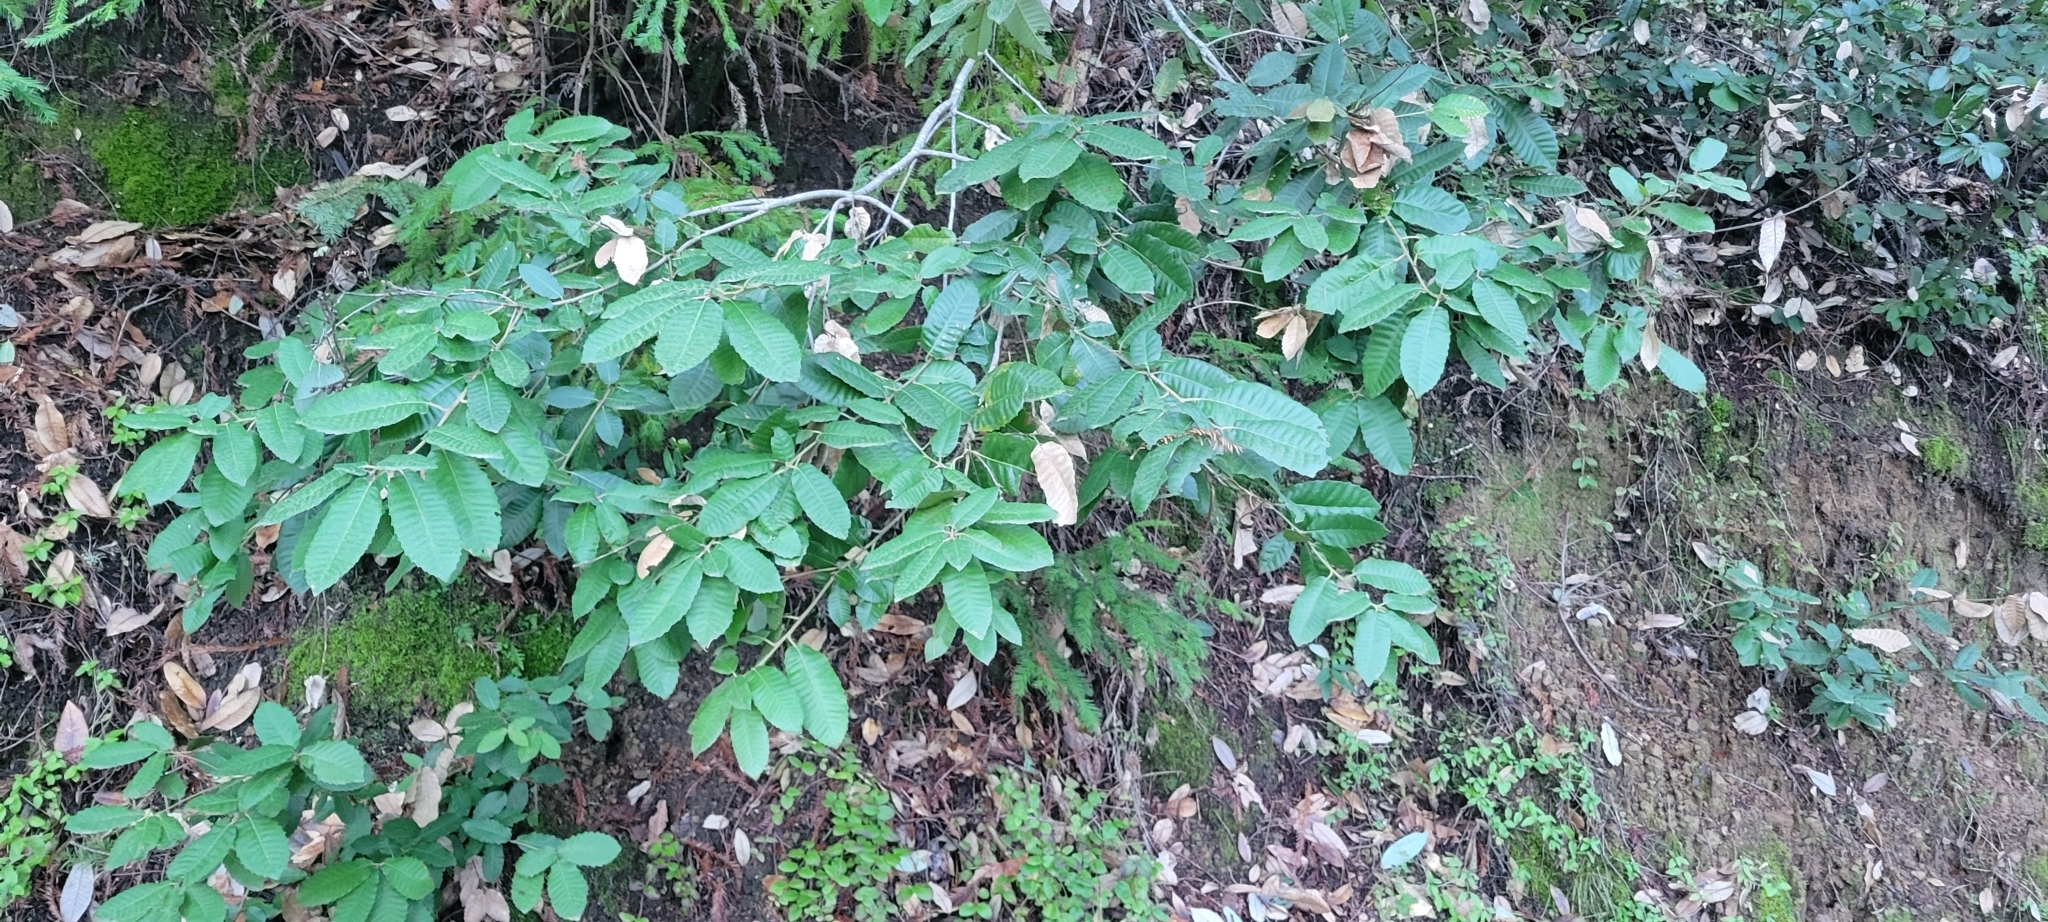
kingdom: Plantae
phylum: Tracheophyta
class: Magnoliopsida
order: Fagales
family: Fagaceae
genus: Notholithocarpus
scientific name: Notholithocarpus densiflorus
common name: Tan bark oak
